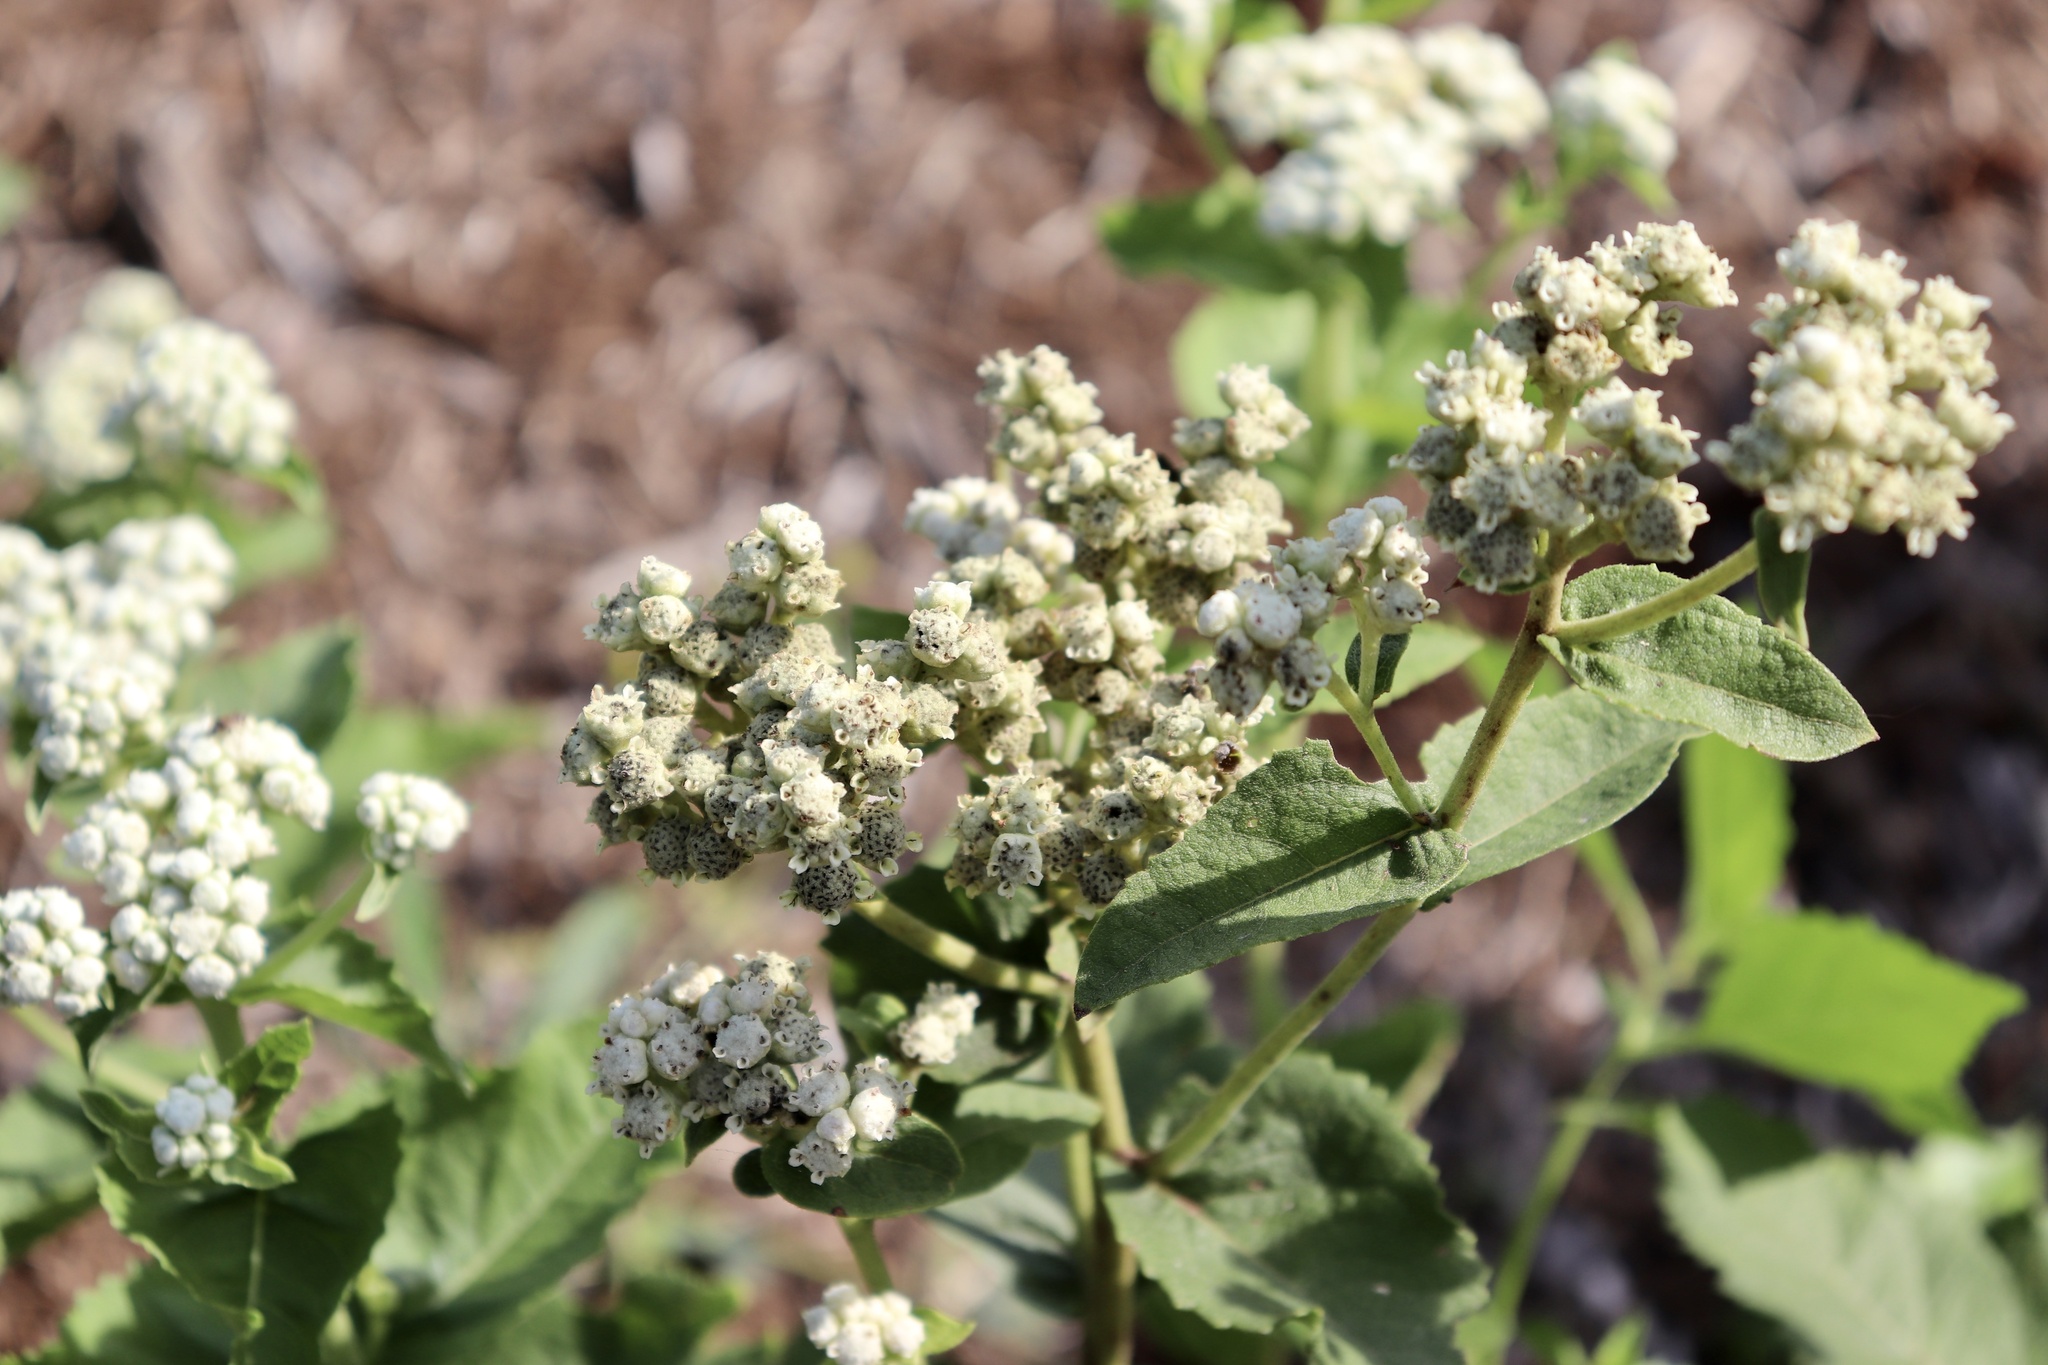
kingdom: Plantae
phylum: Tracheophyta
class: Magnoliopsida
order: Asterales
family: Asteraceae
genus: Parthenium
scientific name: Parthenium integrifolium
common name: American feverfew
